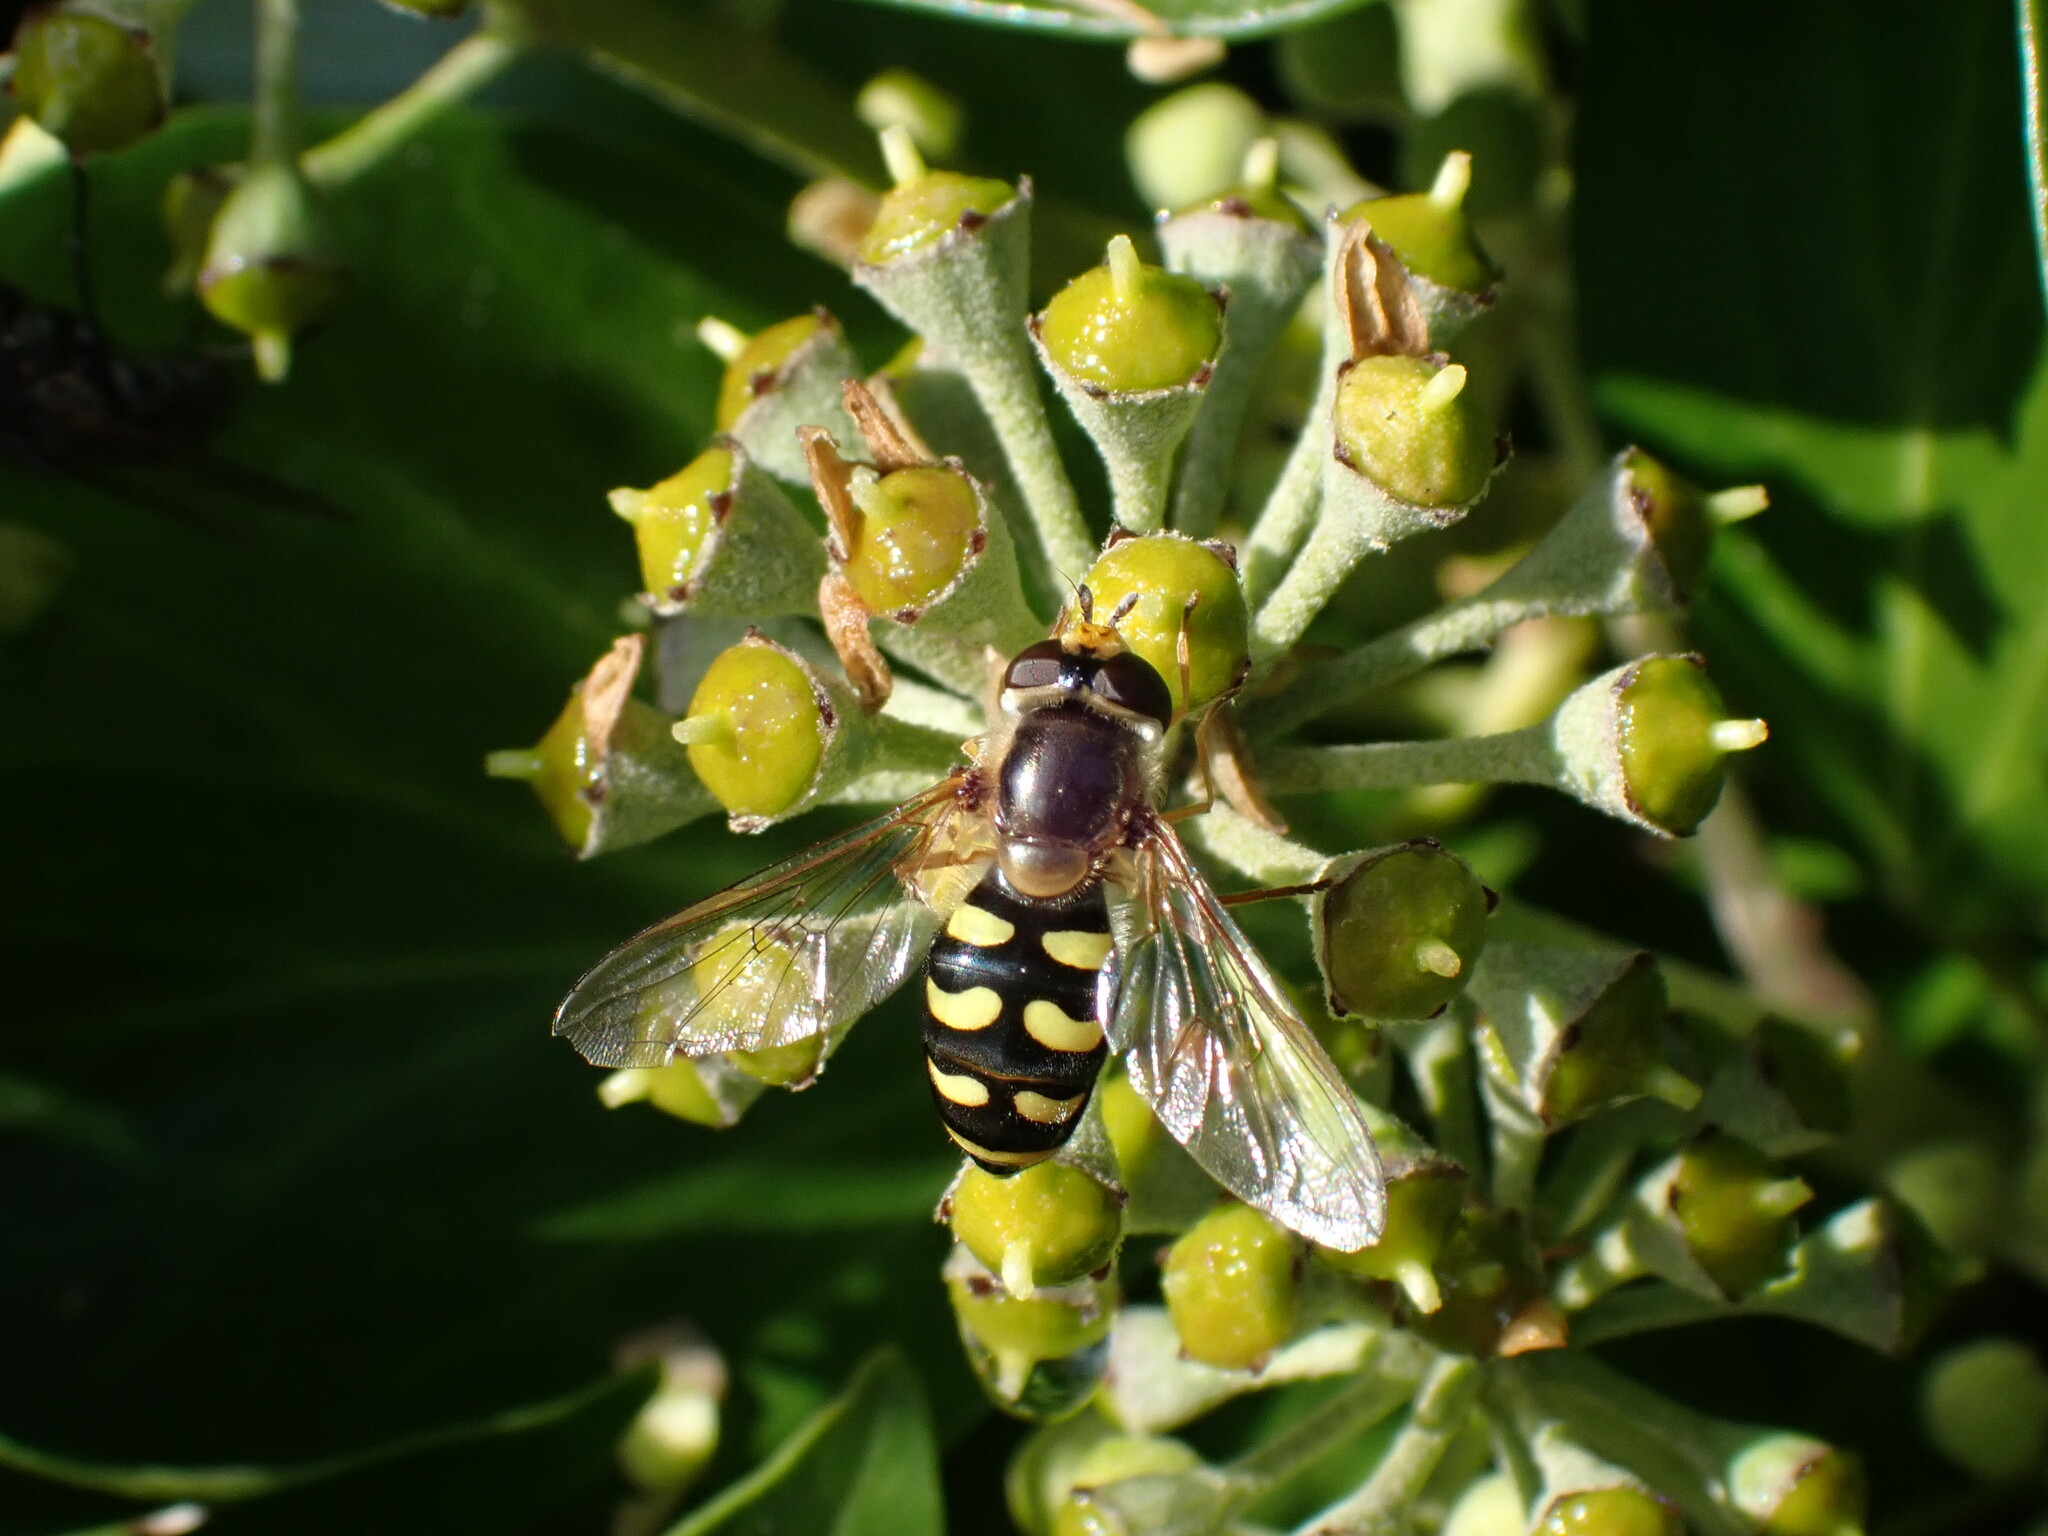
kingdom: Animalia
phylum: Arthropoda
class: Insecta
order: Diptera
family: Syrphidae
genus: Eupeodes
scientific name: Eupeodes luniger
